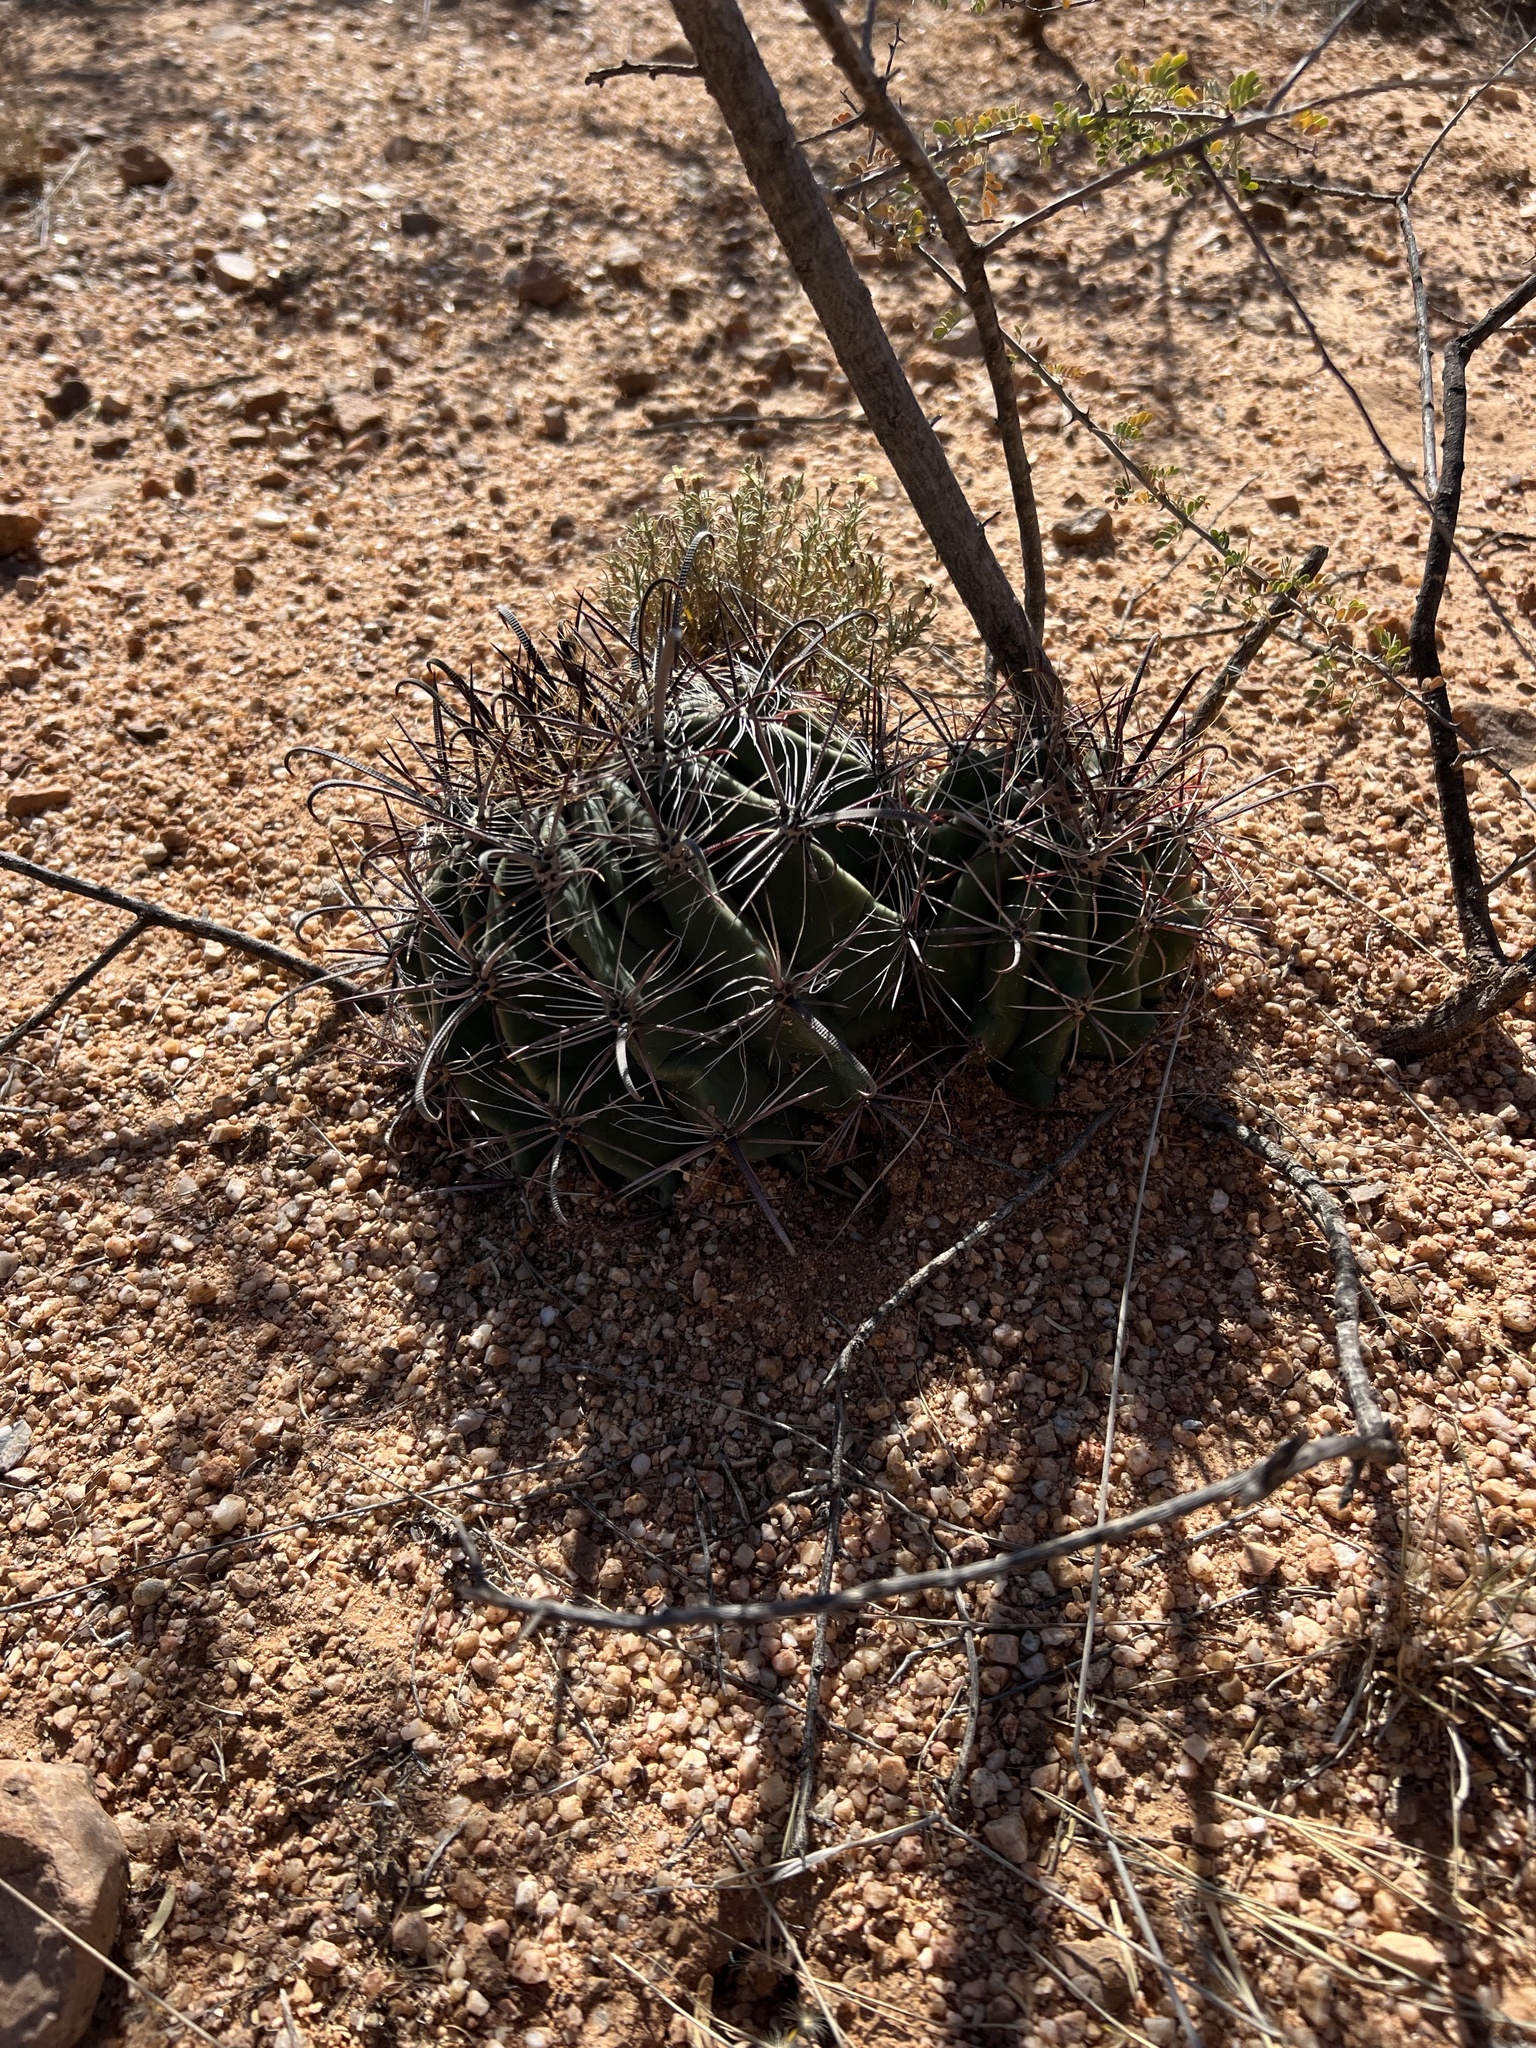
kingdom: Plantae
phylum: Tracheophyta
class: Magnoliopsida
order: Caryophyllales
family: Cactaceae
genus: Ferocactus
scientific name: Ferocactus wislizeni
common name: Candy barrel cactus
